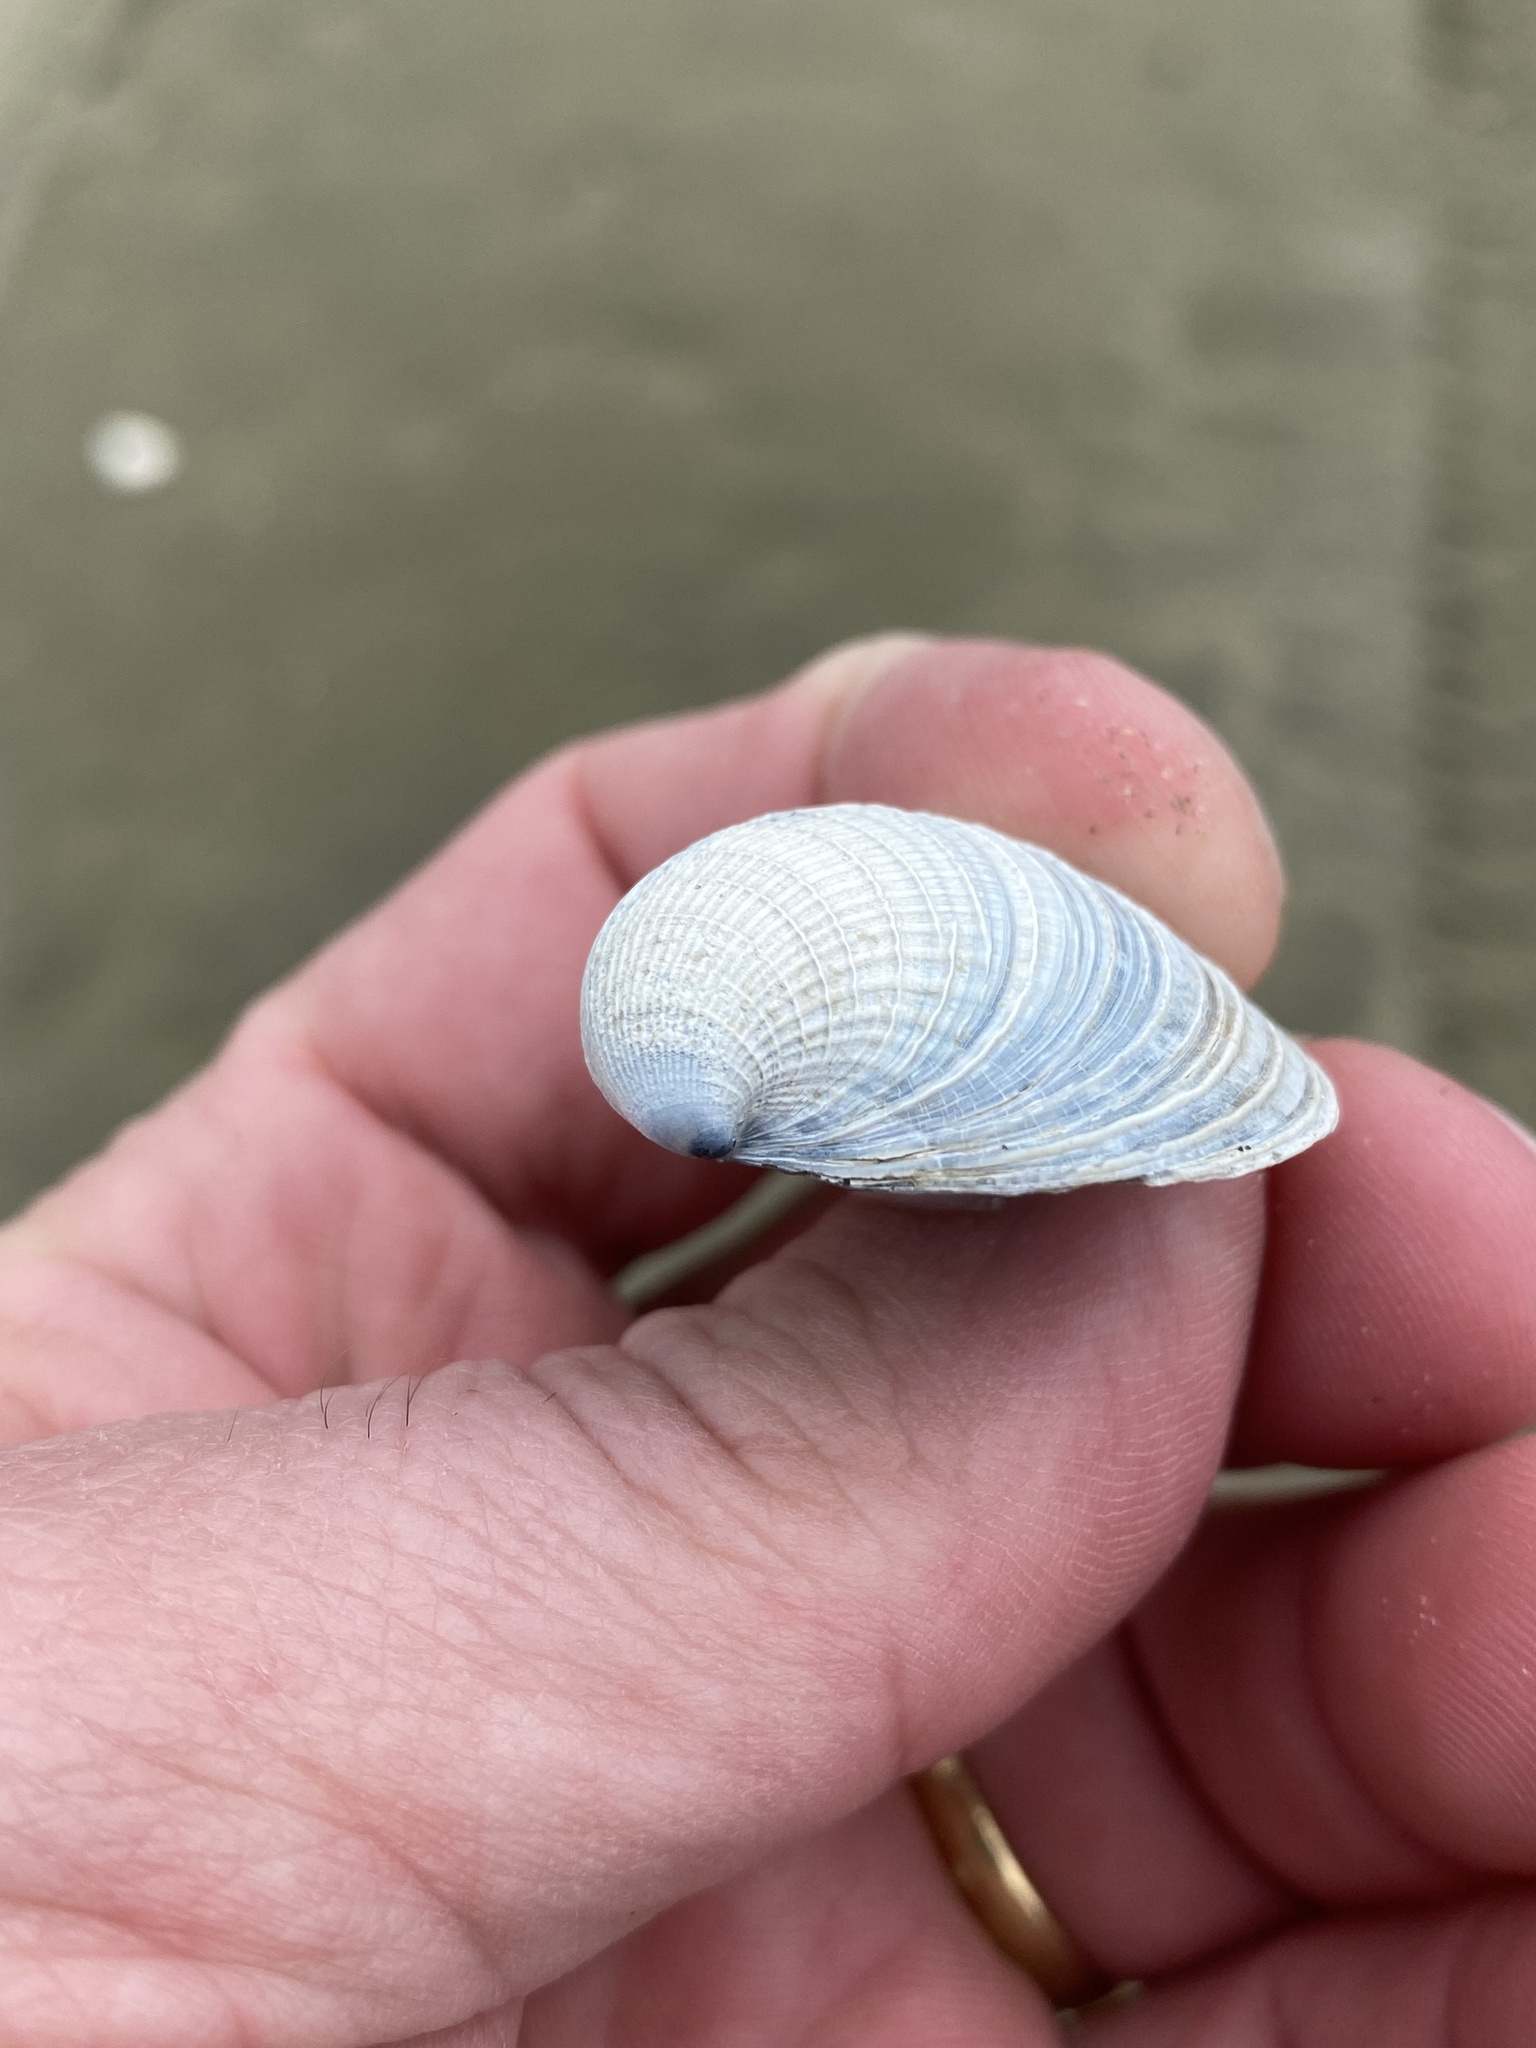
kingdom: Animalia
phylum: Mollusca
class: Bivalvia
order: Venerida
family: Veneridae
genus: Austrovenus
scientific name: Austrovenus stutchburyi
